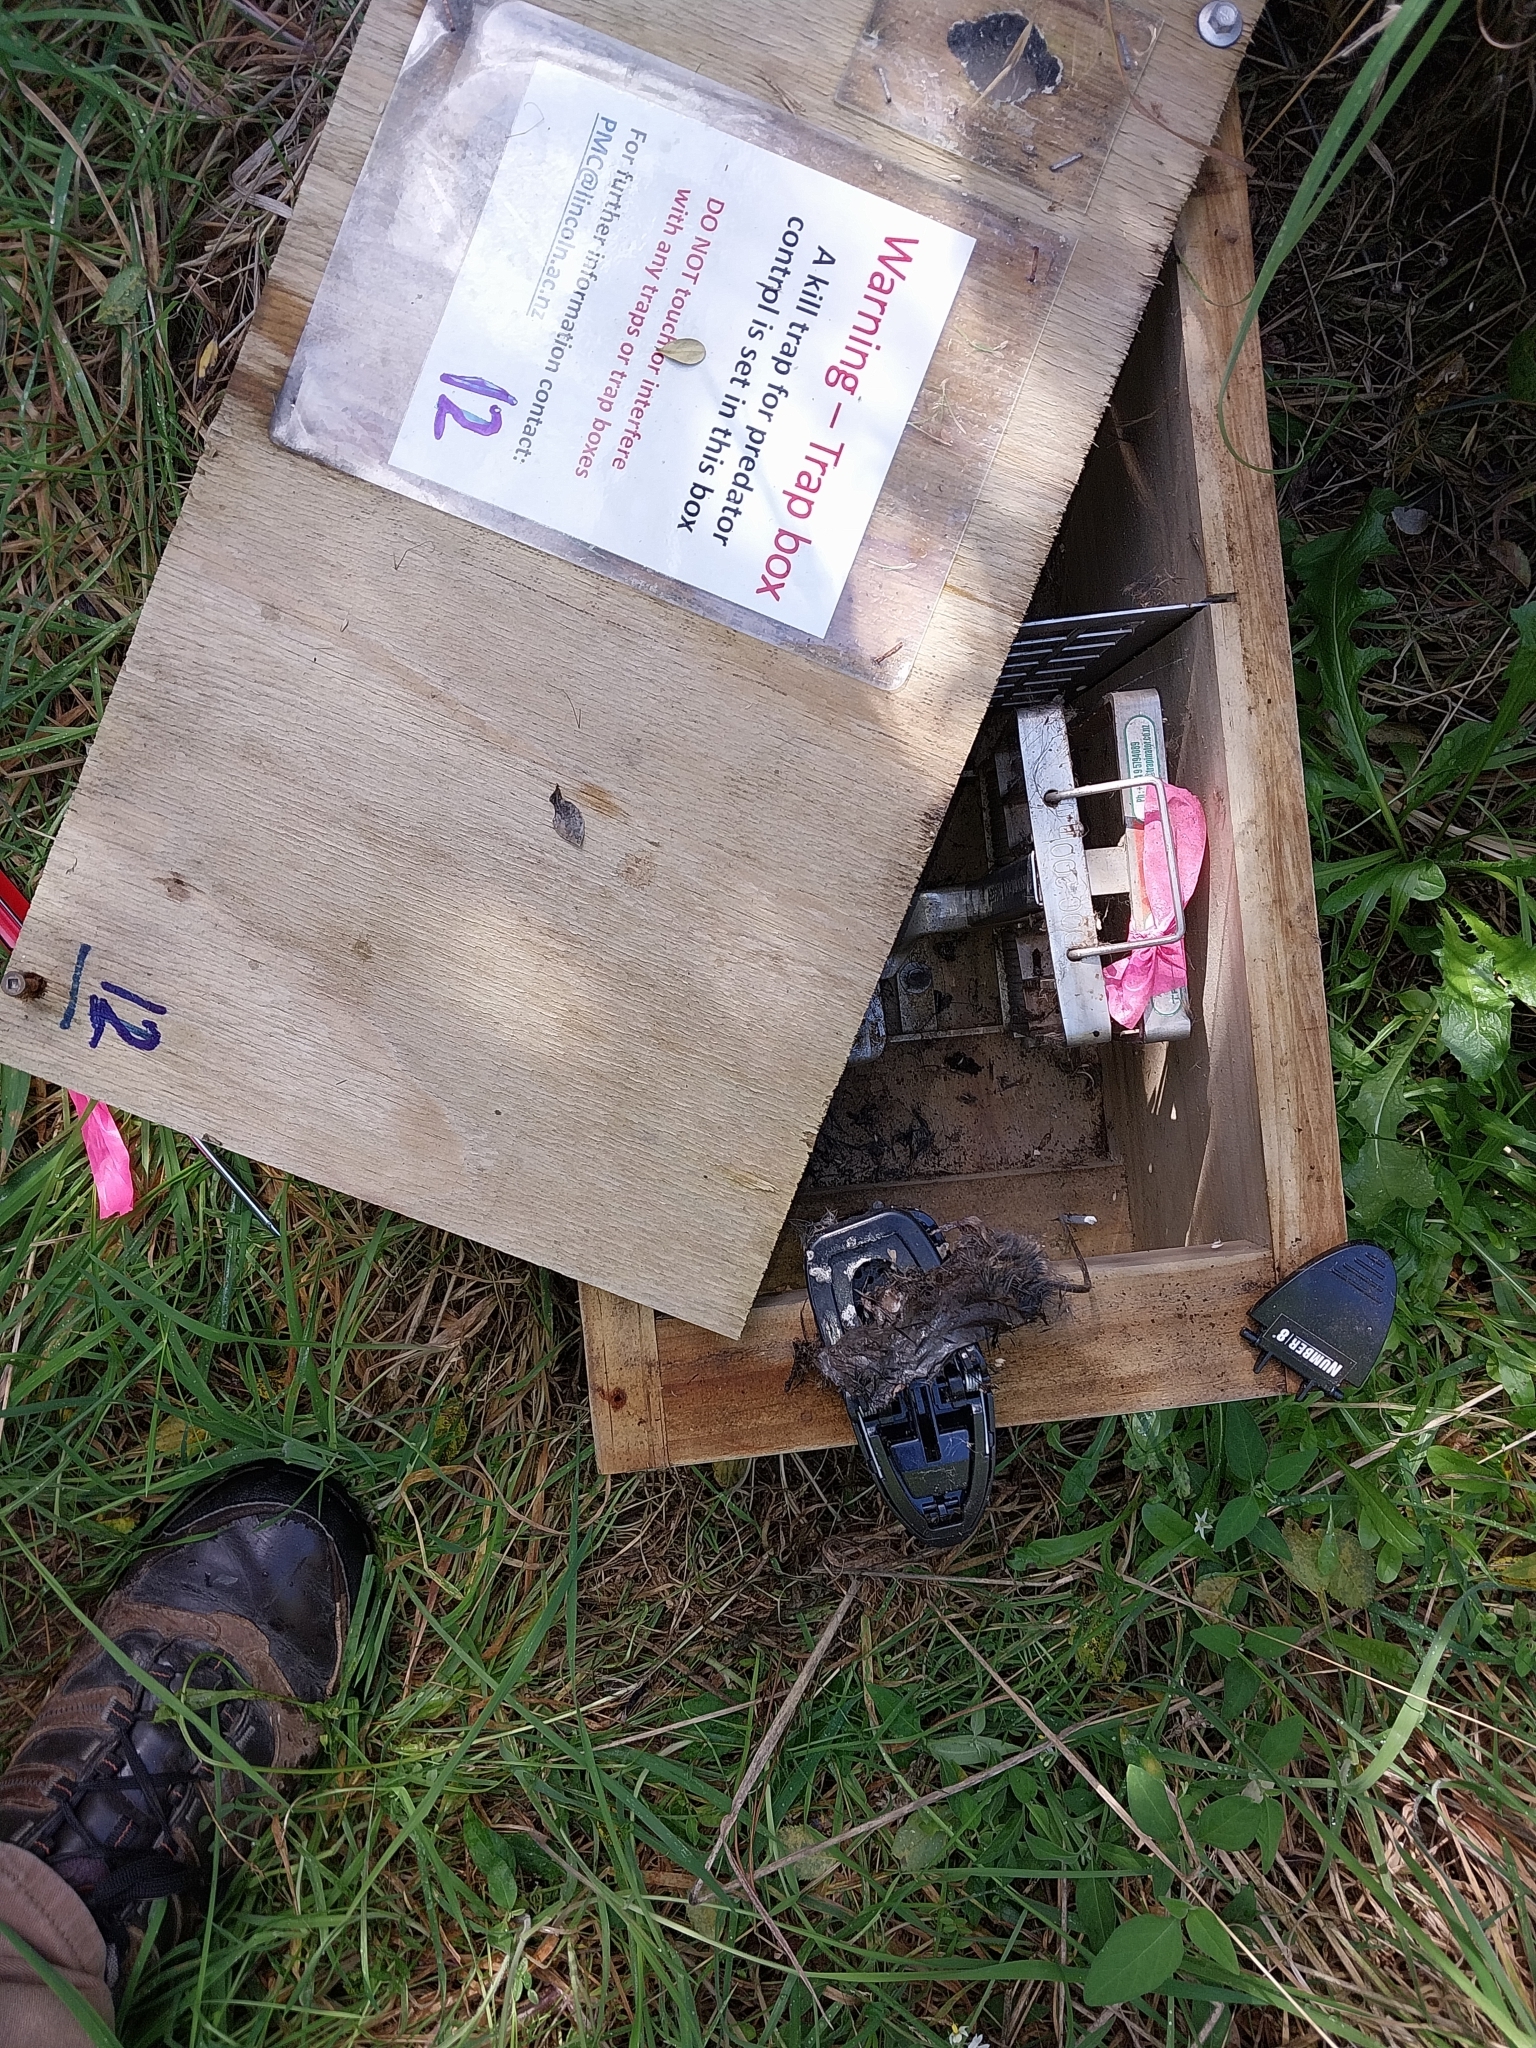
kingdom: Animalia
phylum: Chordata
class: Mammalia
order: Rodentia
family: Muridae
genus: Mus
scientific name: Mus musculus
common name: House mouse
